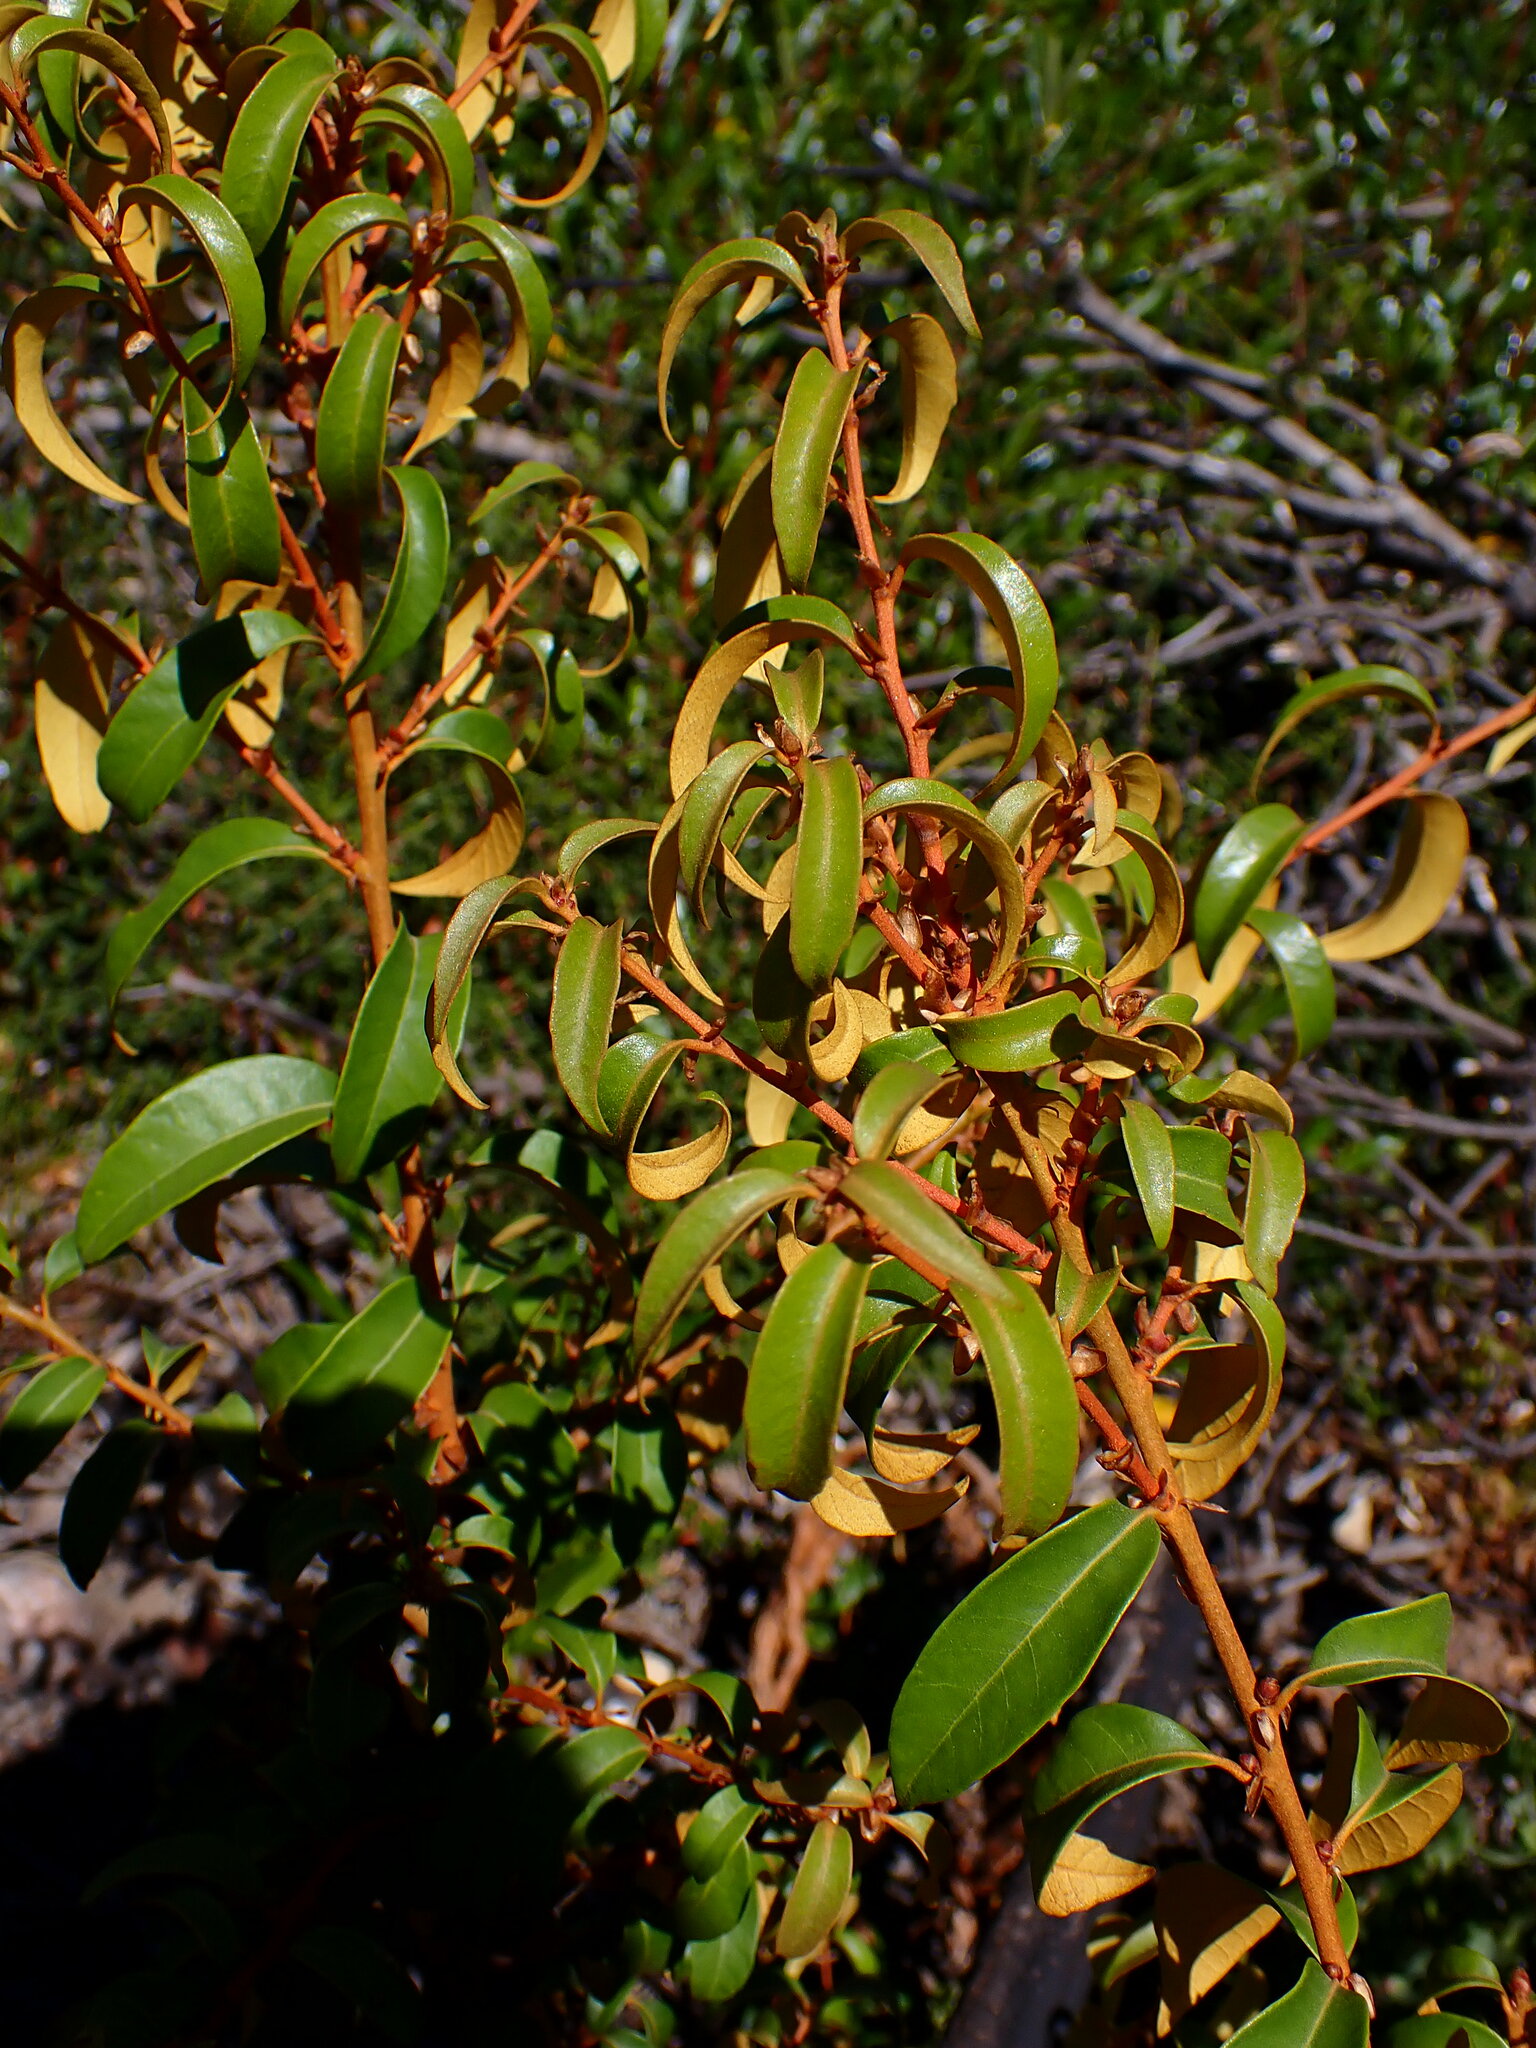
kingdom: Plantae
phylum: Tracheophyta
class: Magnoliopsida
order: Fagales
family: Fagaceae
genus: Chrysolepis
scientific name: Chrysolepis chrysophylla
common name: Giant chinquapin
